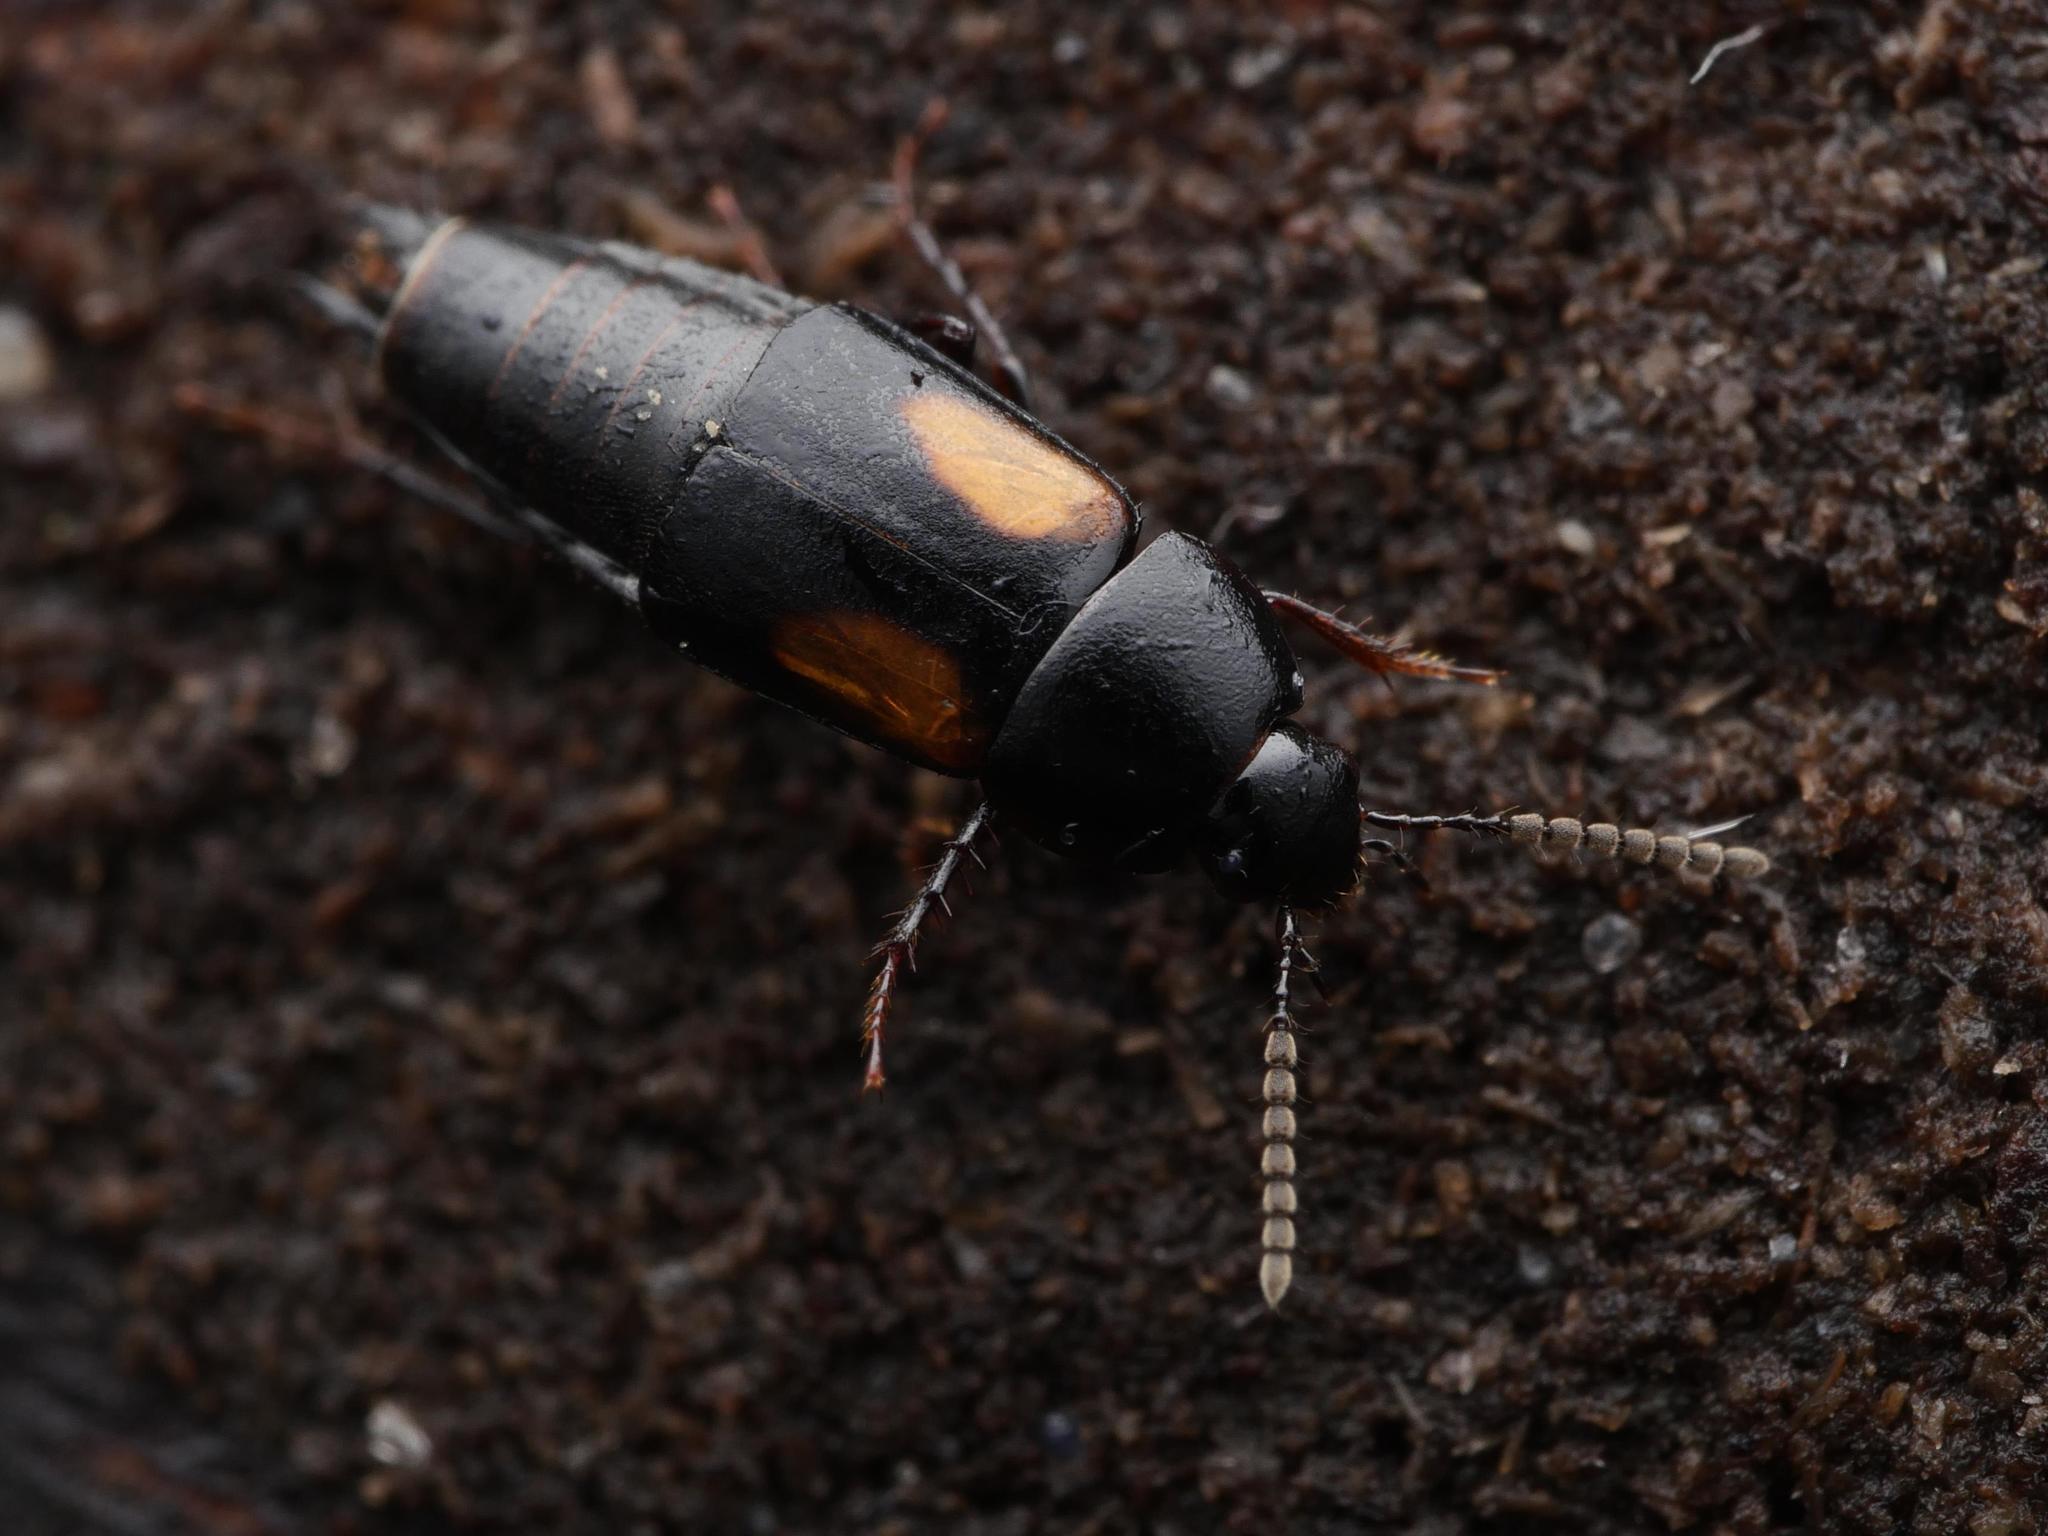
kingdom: Animalia
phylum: Arthropoda
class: Insecta
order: Coleoptera
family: Staphylinidae
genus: Tachinus
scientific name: Tachinus subterraneus
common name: Staph beetle
